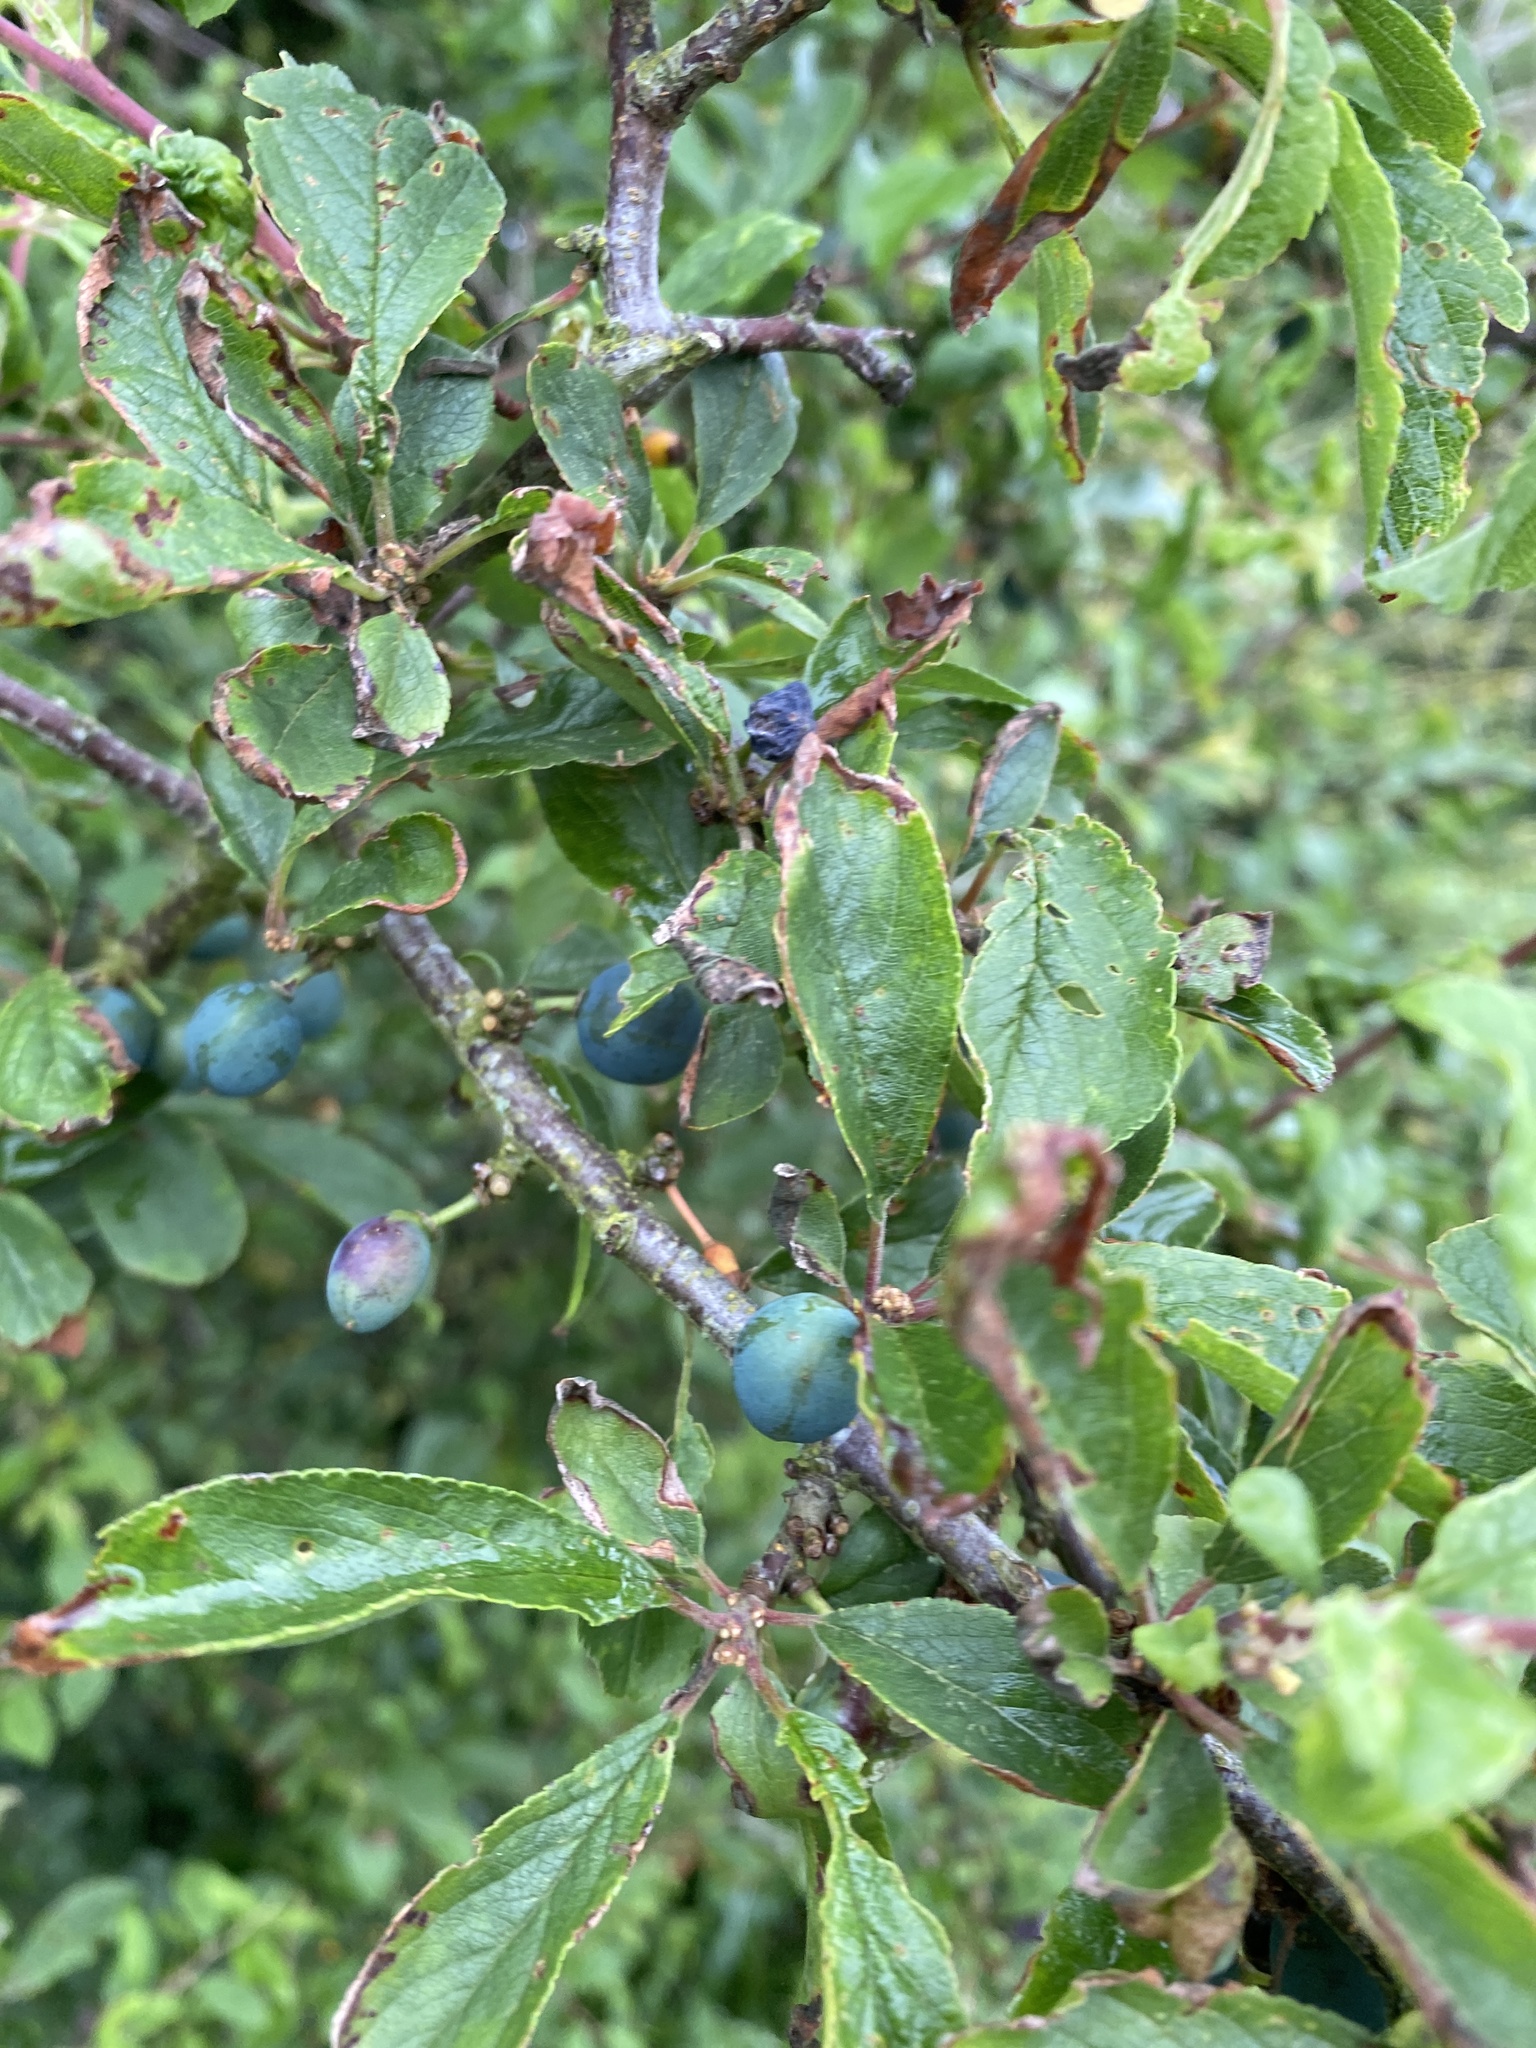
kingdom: Plantae
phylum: Tracheophyta
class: Magnoliopsida
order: Rosales
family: Rosaceae
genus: Prunus
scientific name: Prunus spinosa
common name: Blackthorn
